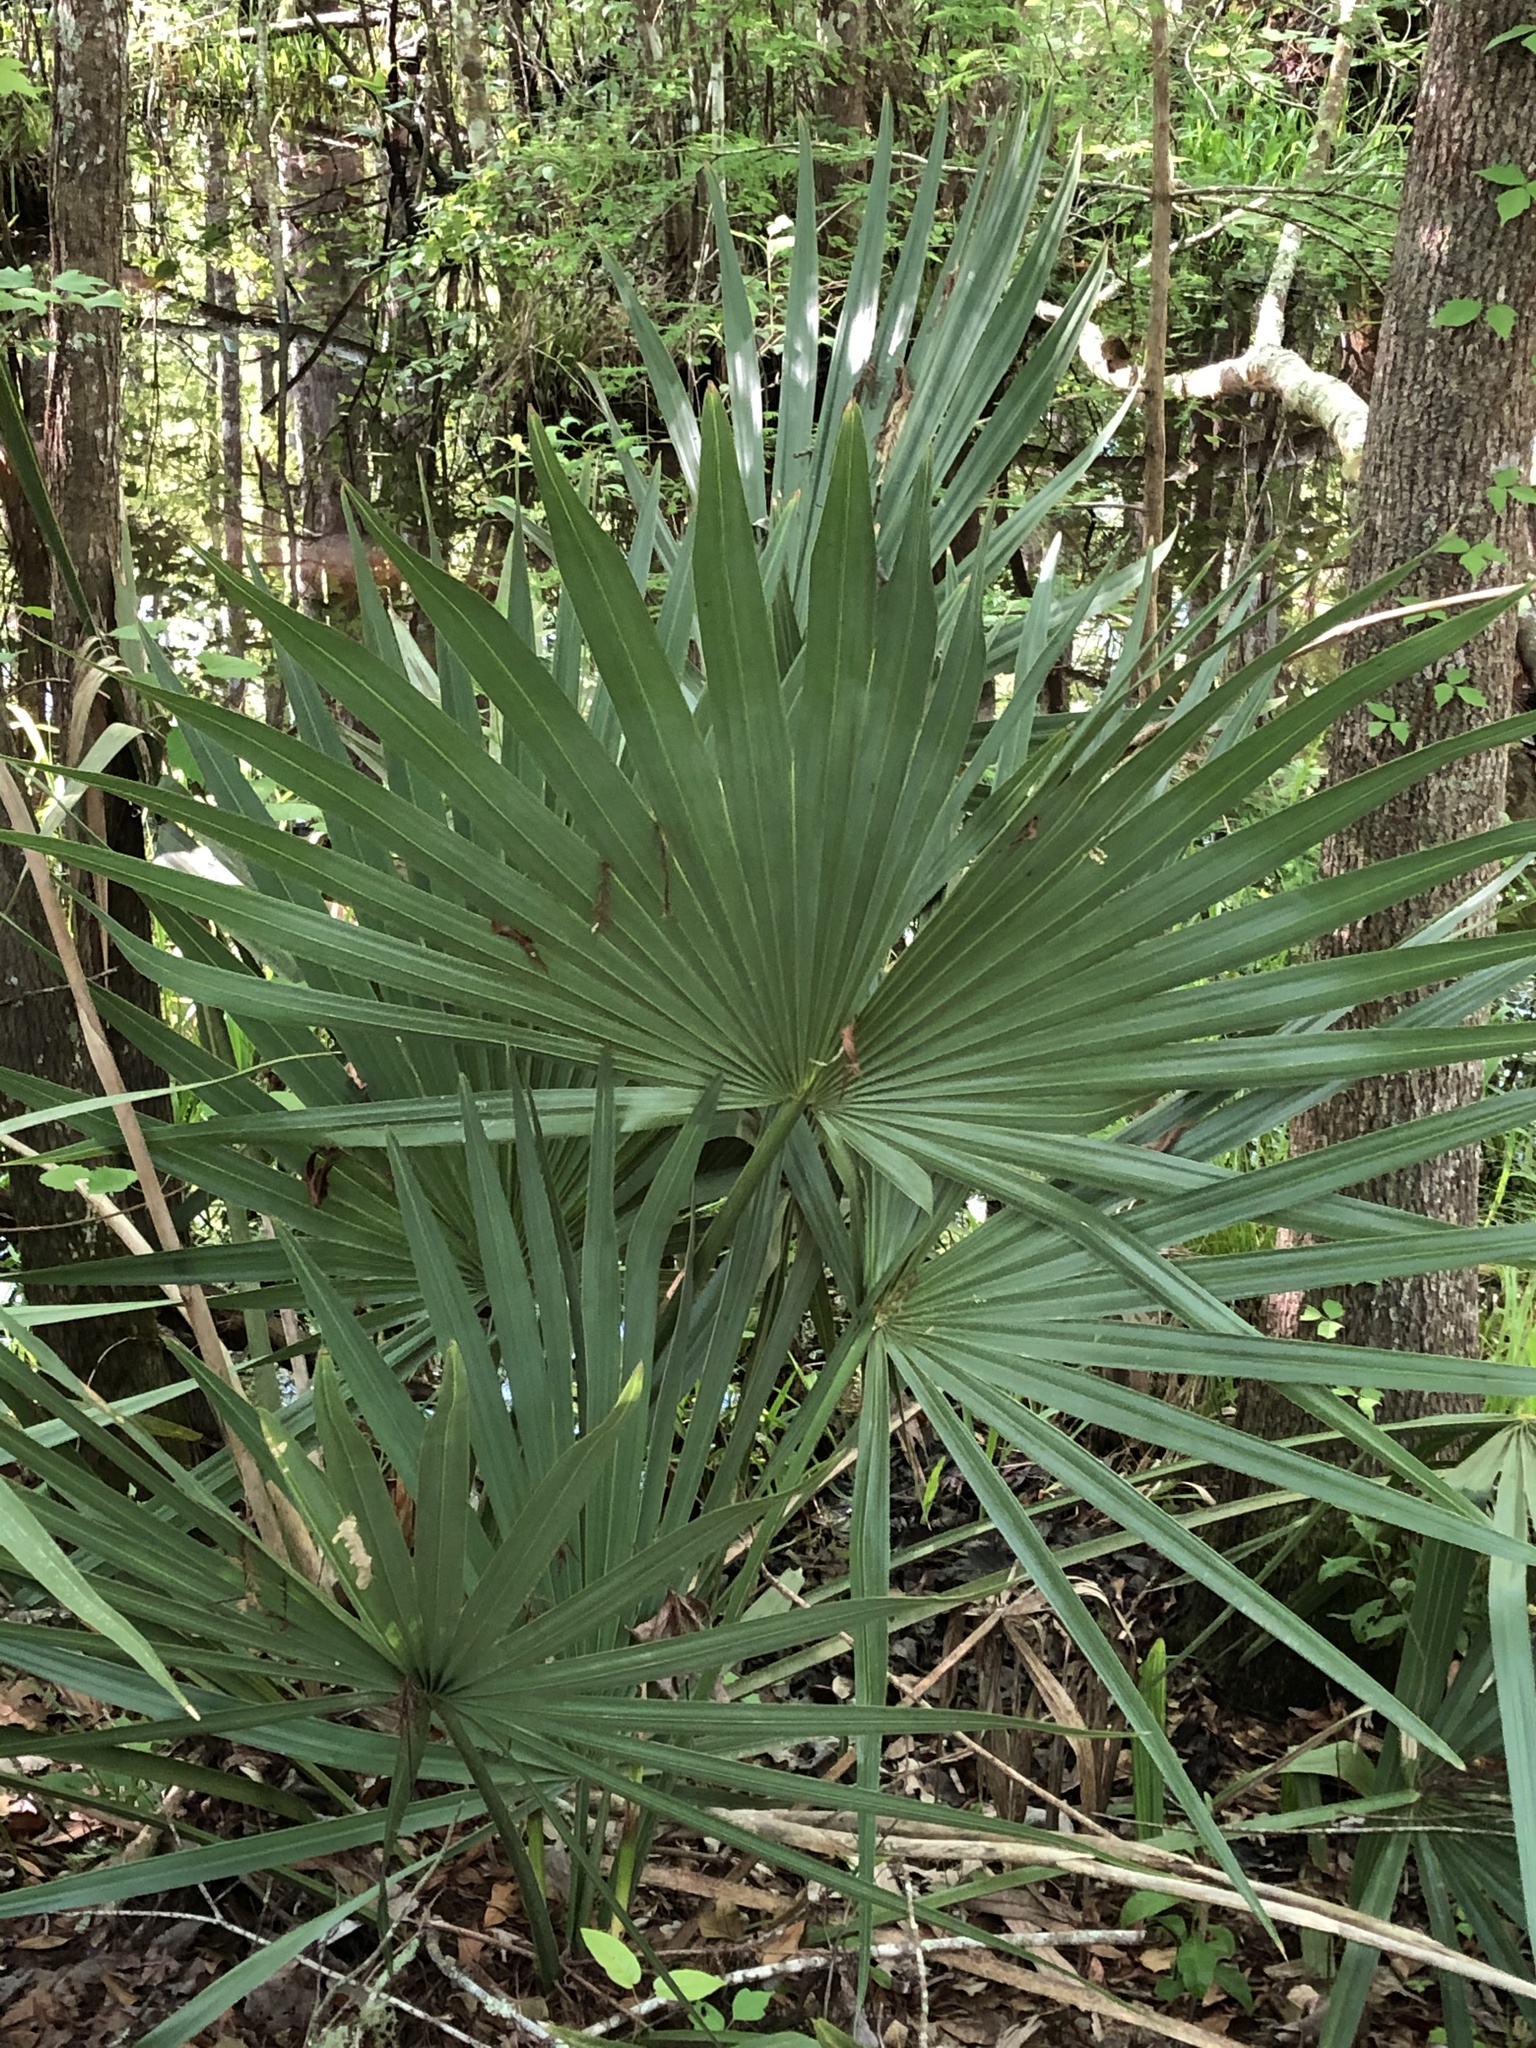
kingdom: Plantae
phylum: Tracheophyta
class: Liliopsida
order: Arecales
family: Arecaceae
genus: Sabal
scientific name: Sabal minor
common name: Dwarf palmetto
